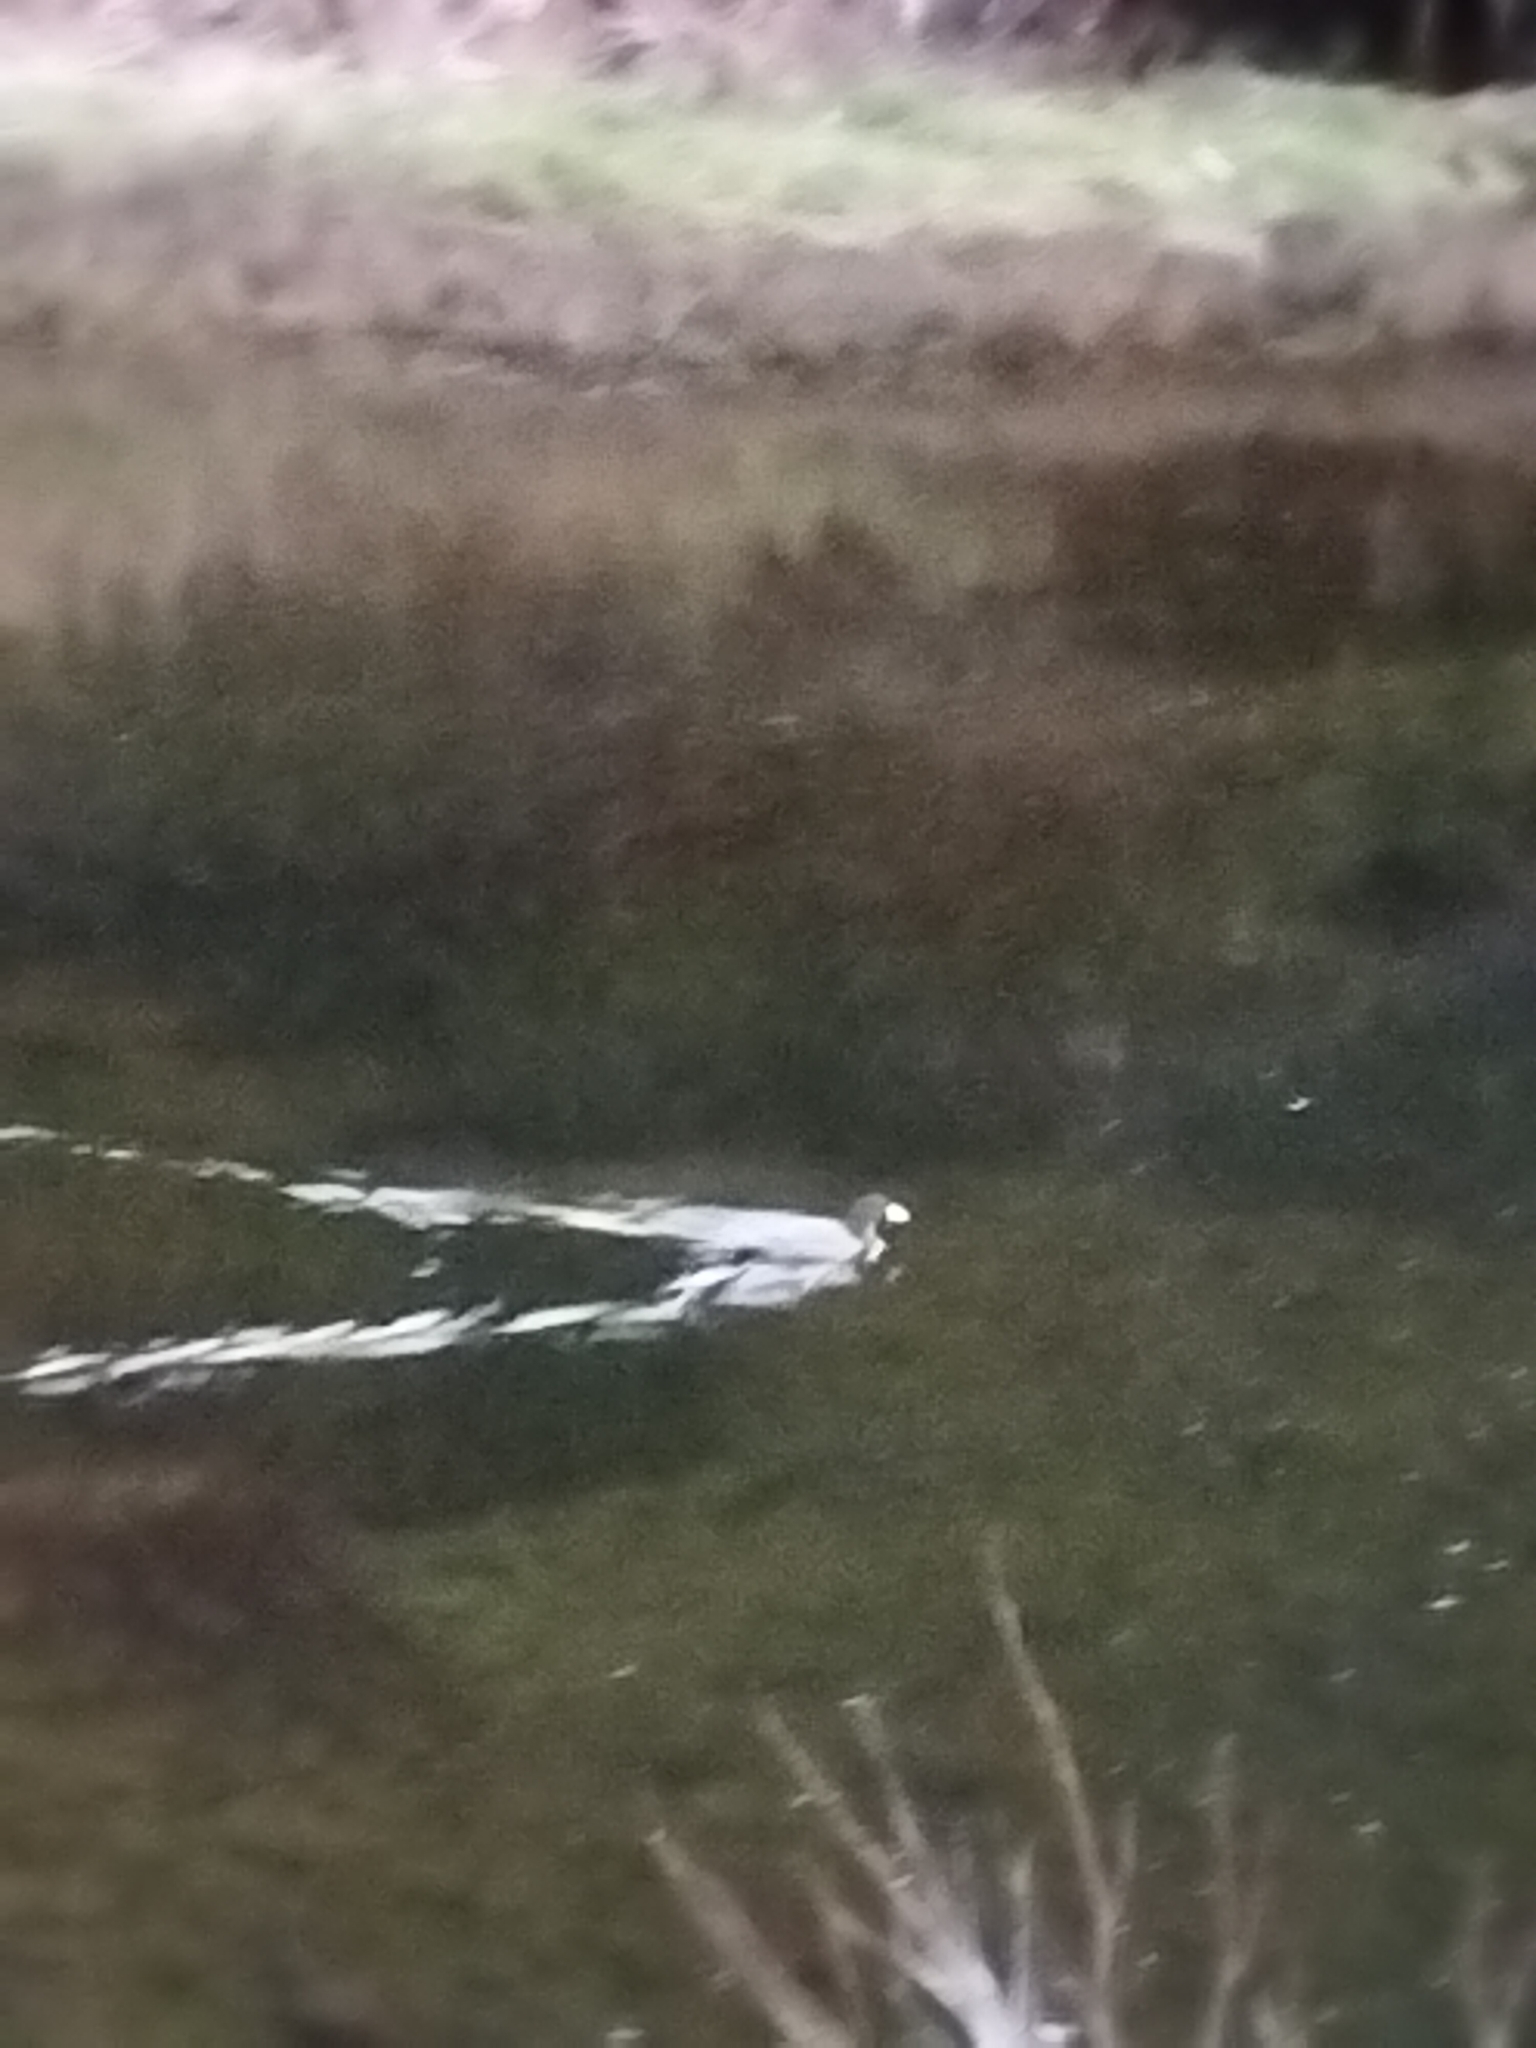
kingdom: Animalia
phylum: Chordata
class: Aves
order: Anseriformes
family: Anatidae
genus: Hymenolaimus
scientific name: Hymenolaimus malacorhynchos
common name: Blue duck
